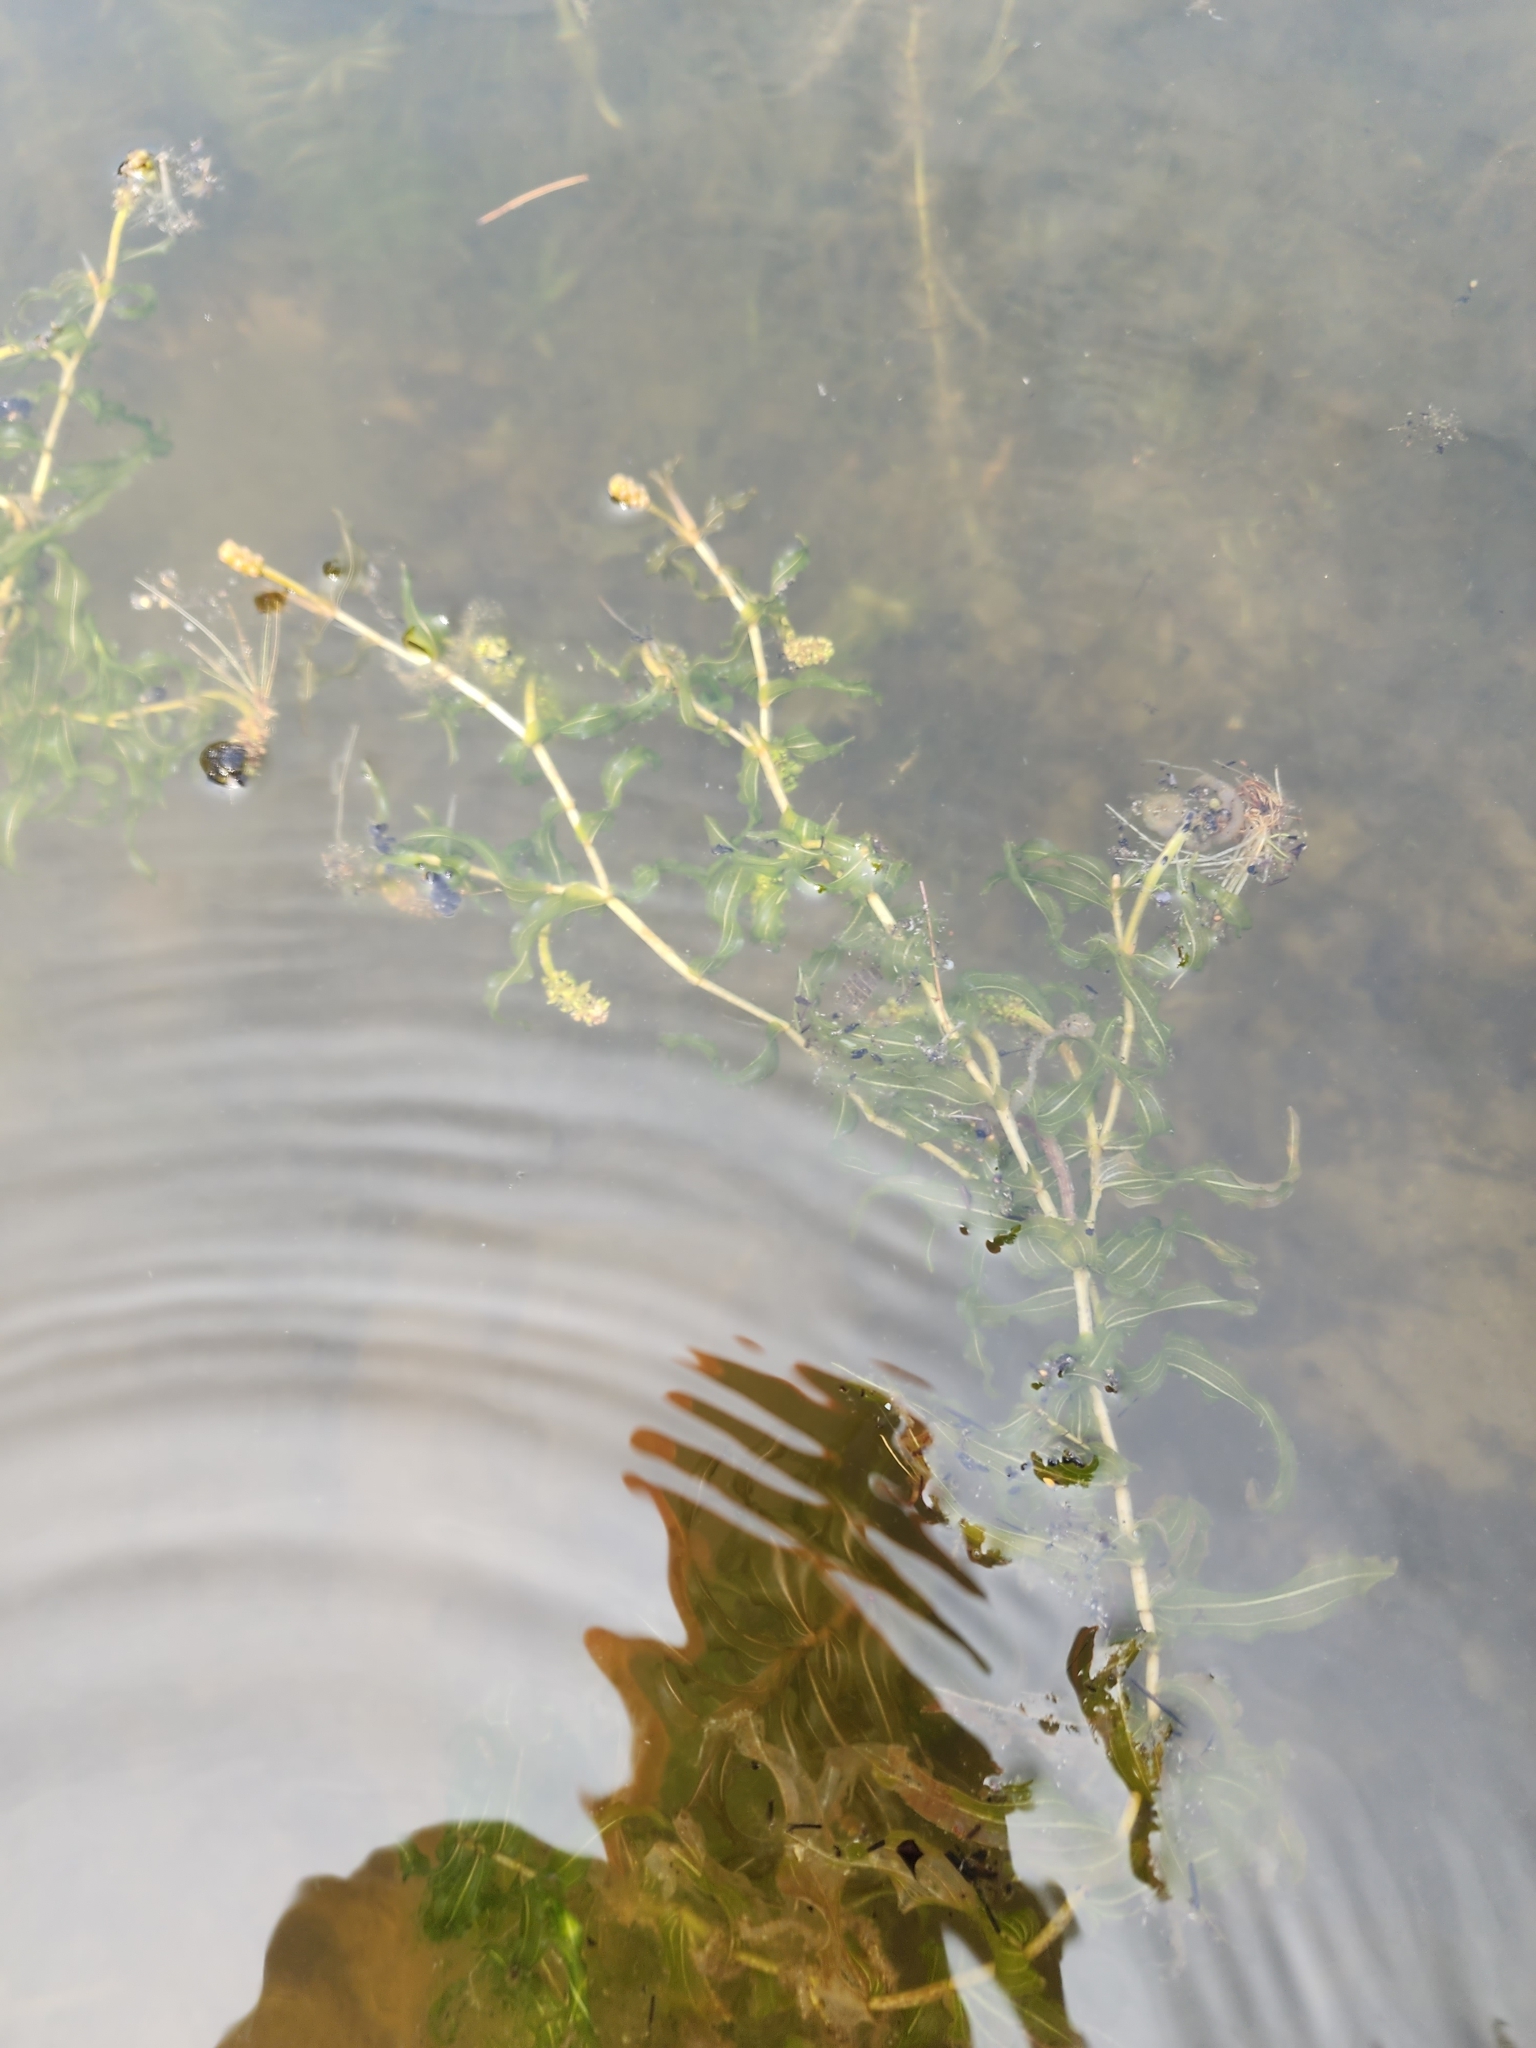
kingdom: Plantae
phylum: Tracheophyta
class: Liliopsida
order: Alismatales
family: Potamogetonaceae
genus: Potamogeton
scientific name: Potamogeton richardsonii
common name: Richardson's pondweed
